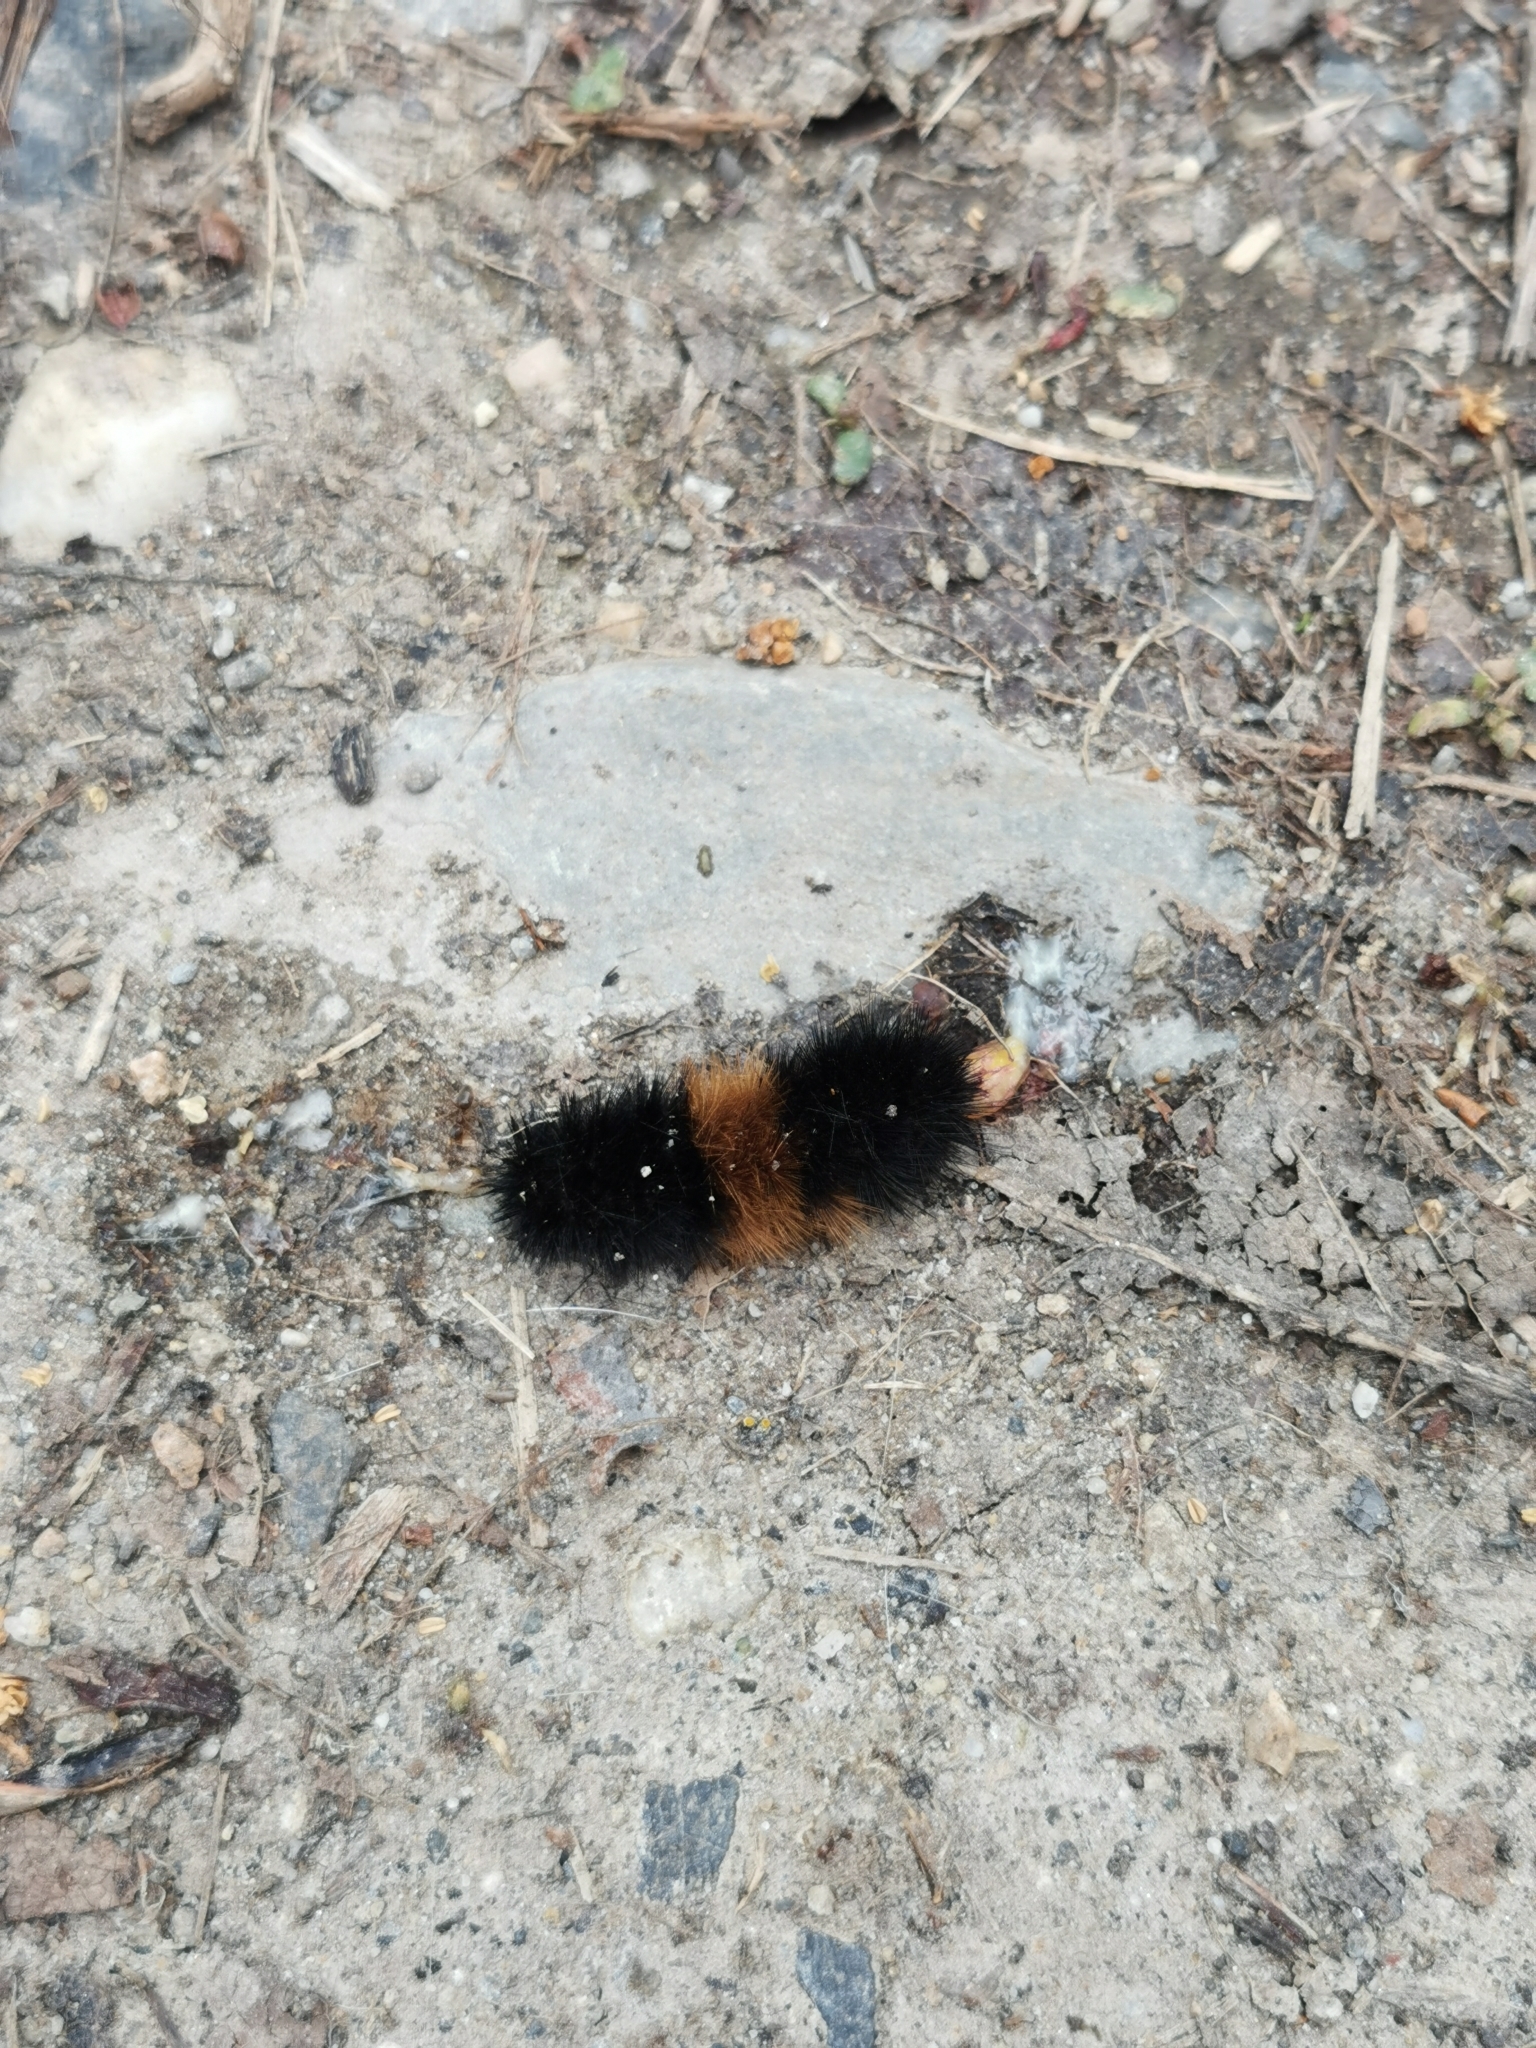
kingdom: Animalia
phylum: Arthropoda
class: Insecta
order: Lepidoptera
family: Erebidae
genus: Pyrrharctia
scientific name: Pyrrharctia isabella
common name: Isabella tiger moth
